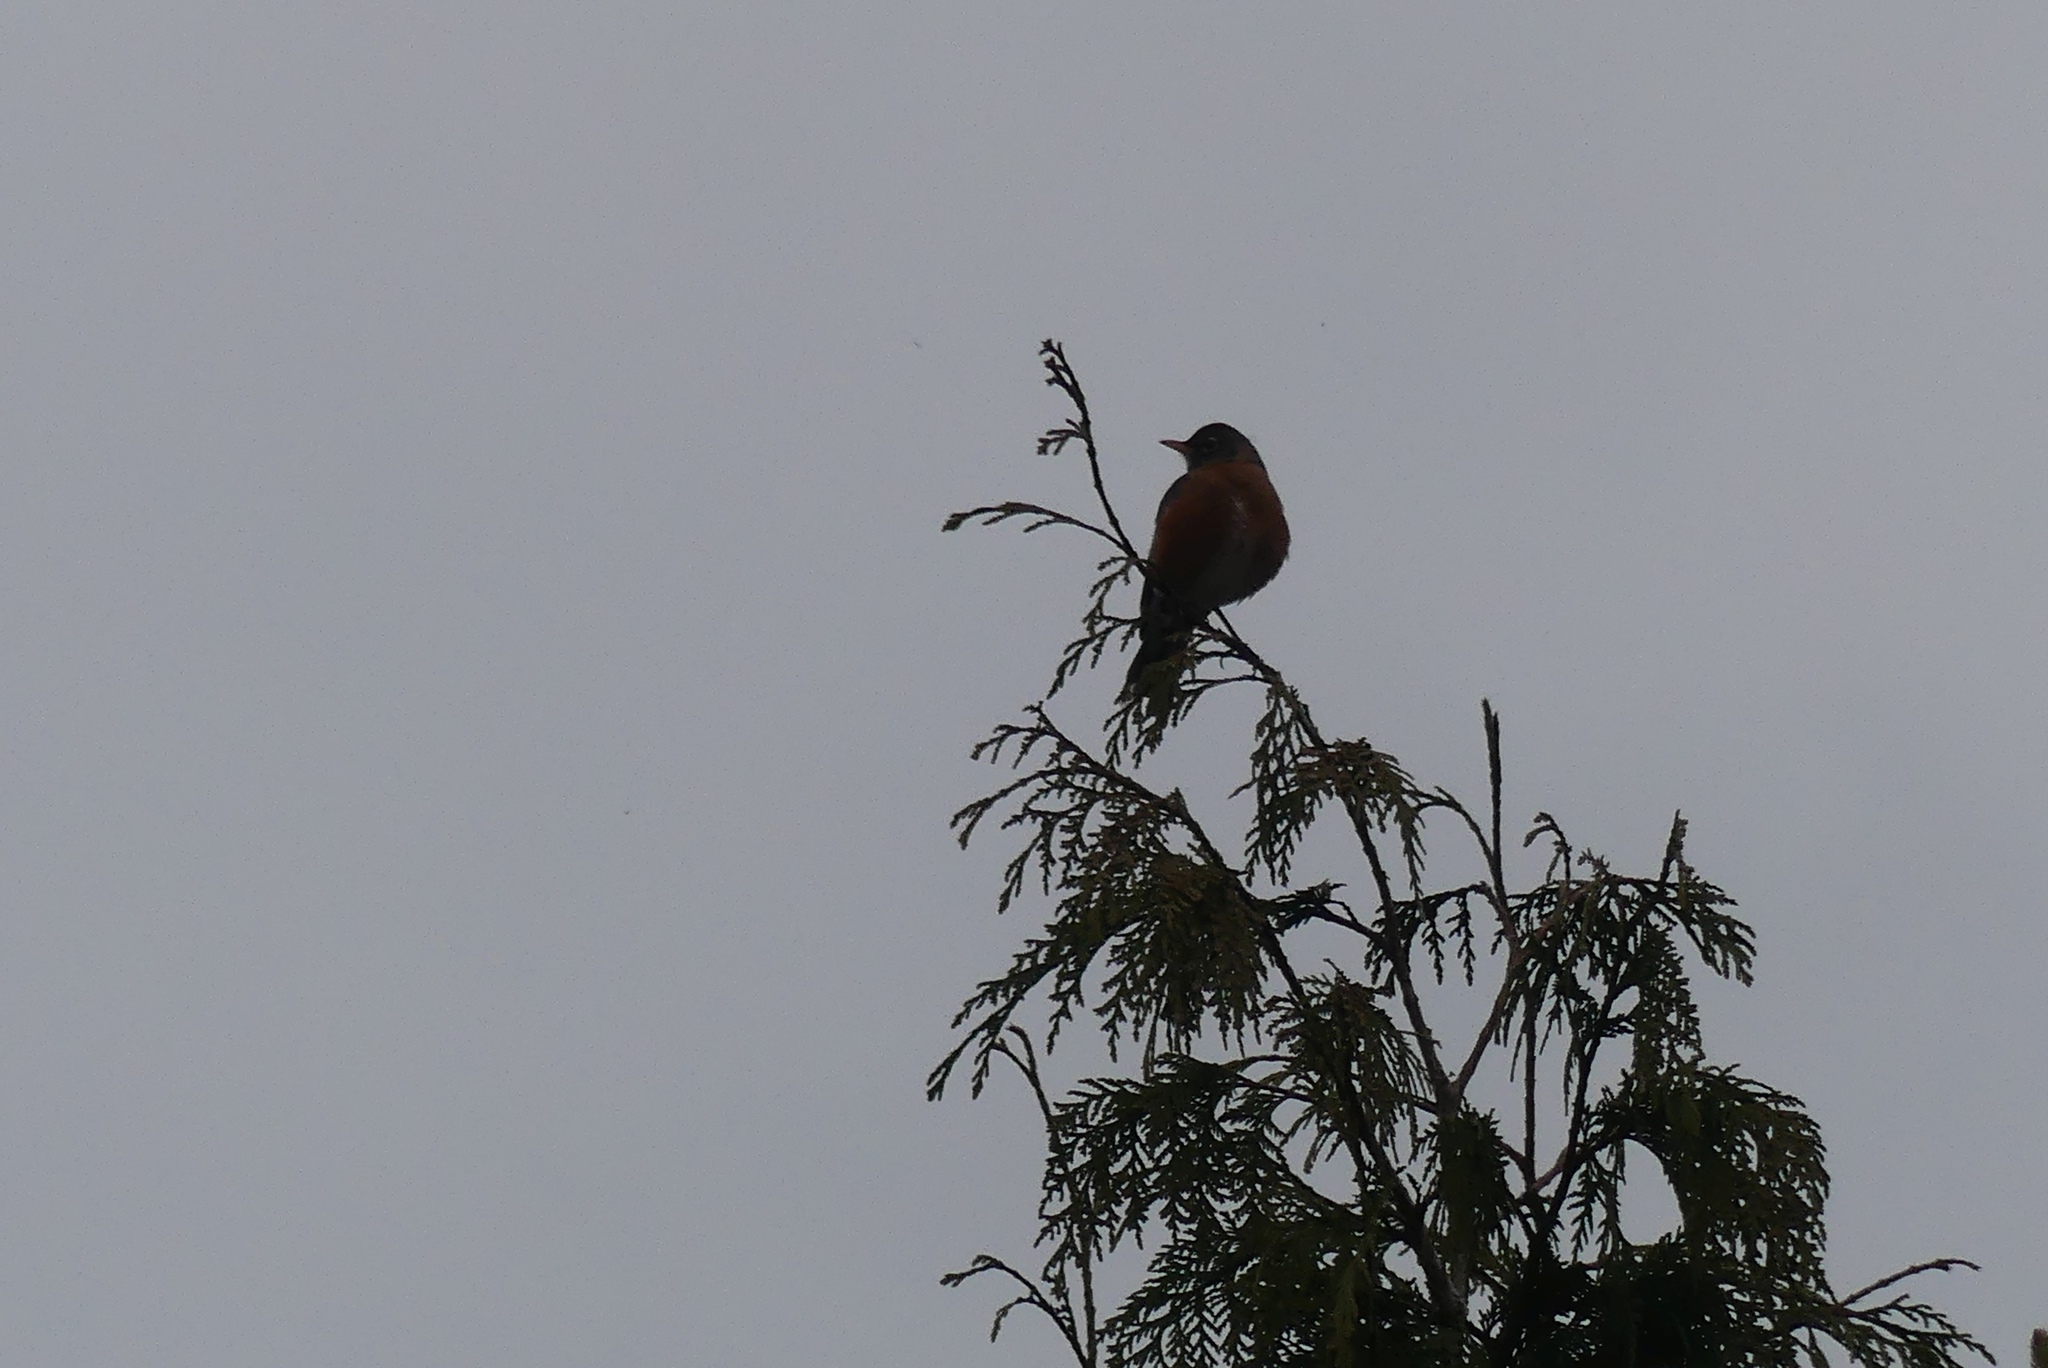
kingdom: Animalia
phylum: Chordata
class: Aves
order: Passeriformes
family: Turdidae
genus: Turdus
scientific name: Turdus migratorius
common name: American robin
